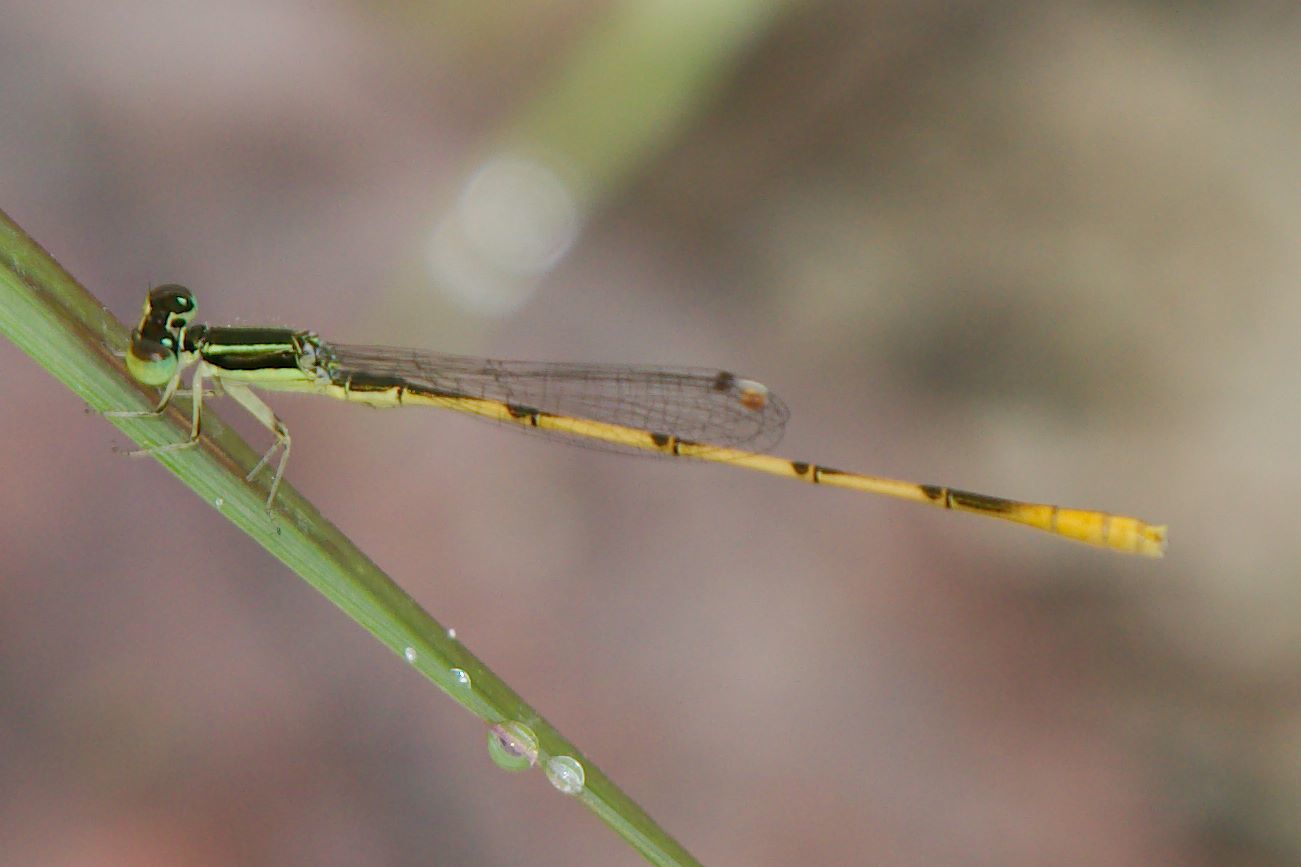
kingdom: Animalia
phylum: Arthropoda
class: Insecta
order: Odonata
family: Coenagrionidae
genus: Ischnura
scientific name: Ischnura hastata
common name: Citrine forktail
